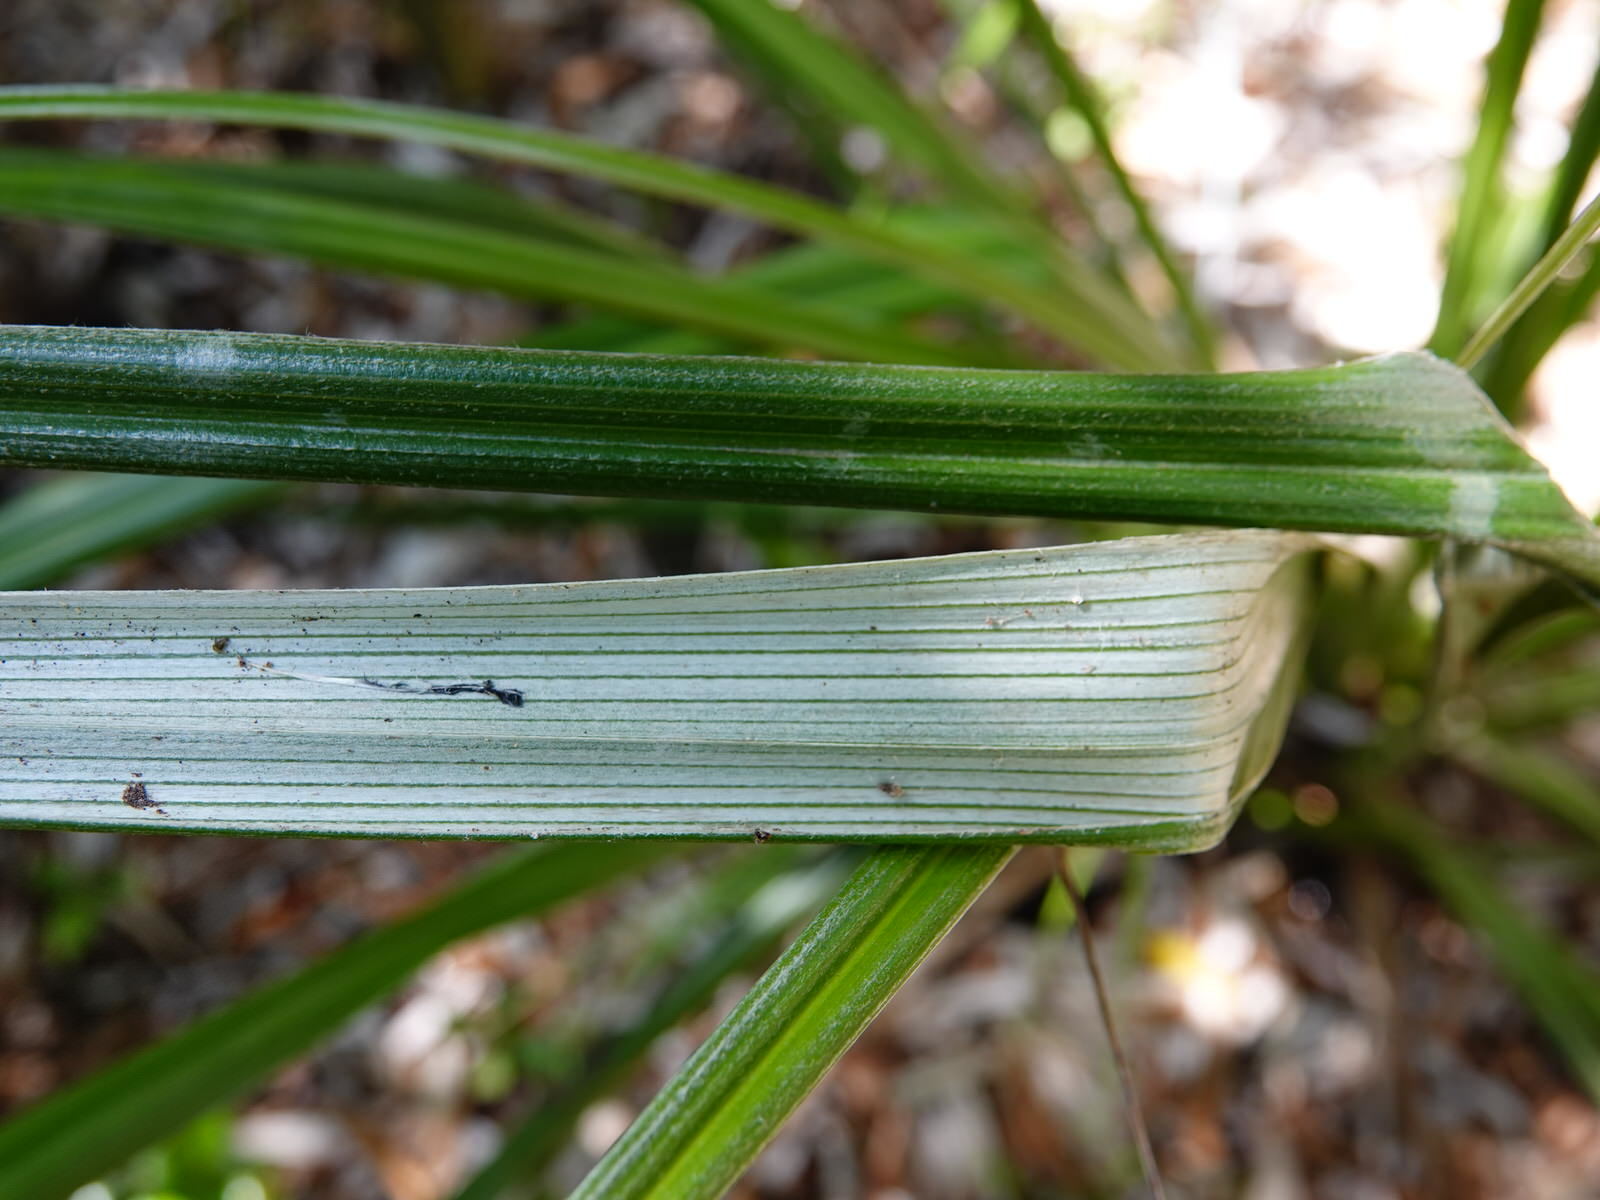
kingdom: Plantae
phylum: Tracheophyta
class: Liliopsida
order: Asparagales
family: Asteliaceae
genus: Astelia
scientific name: Astelia banksii
